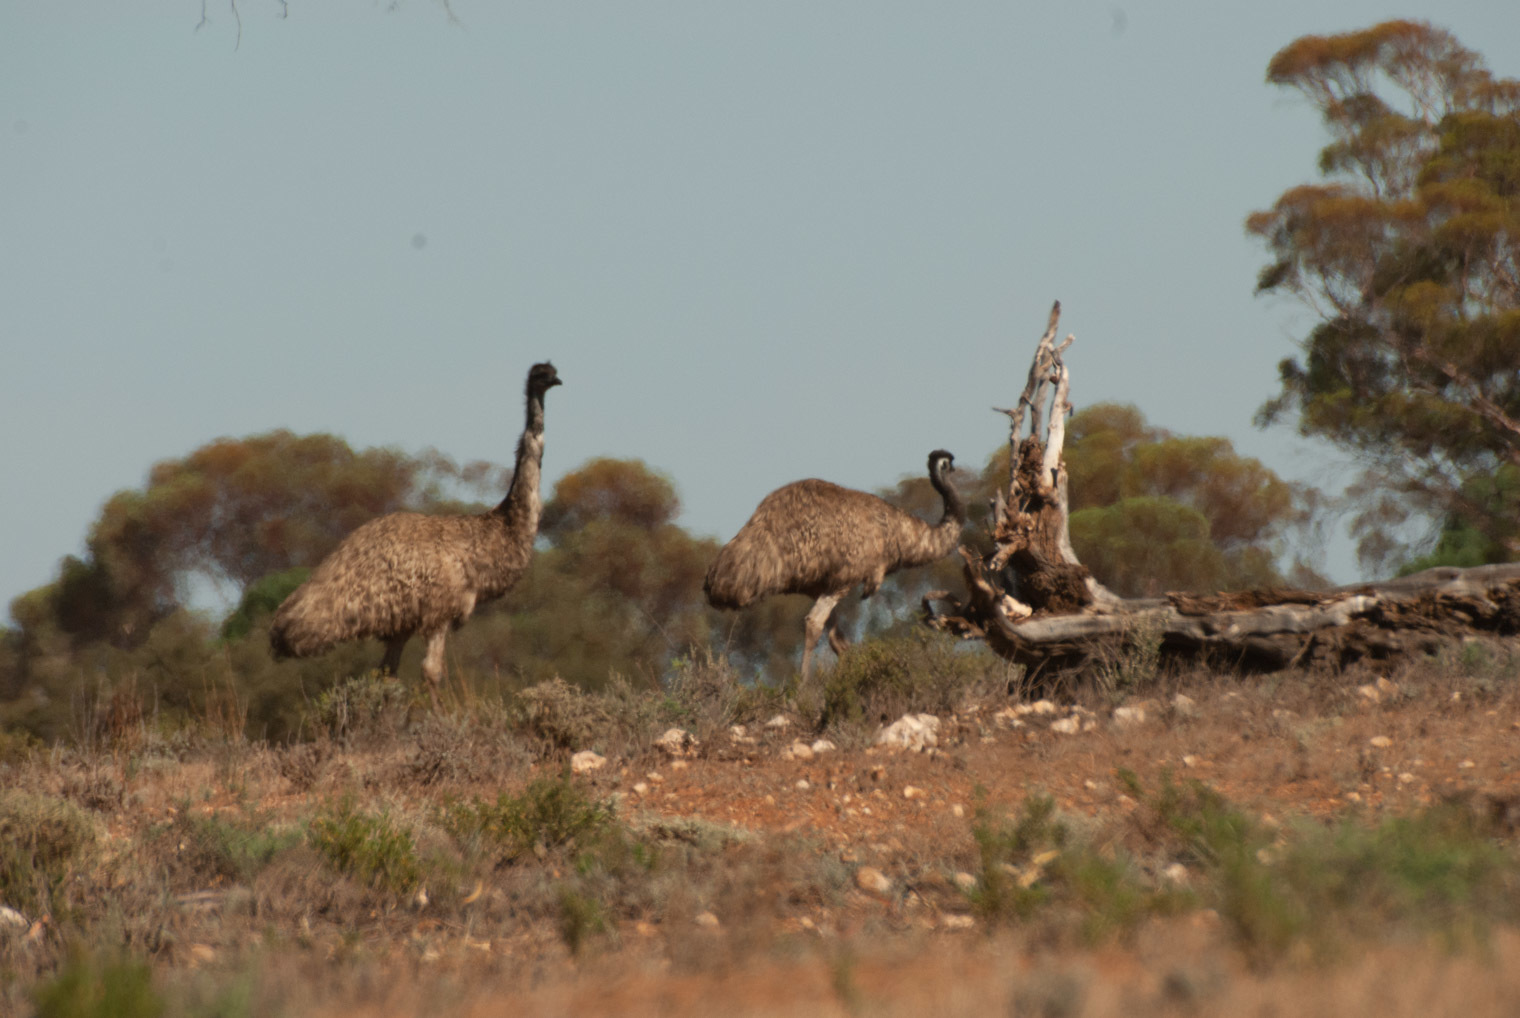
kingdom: Animalia
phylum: Chordata
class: Aves
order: Casuariiformes
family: Dromaiidae
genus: Dromaius
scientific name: Dromaius novaehollandiae
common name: Emu
